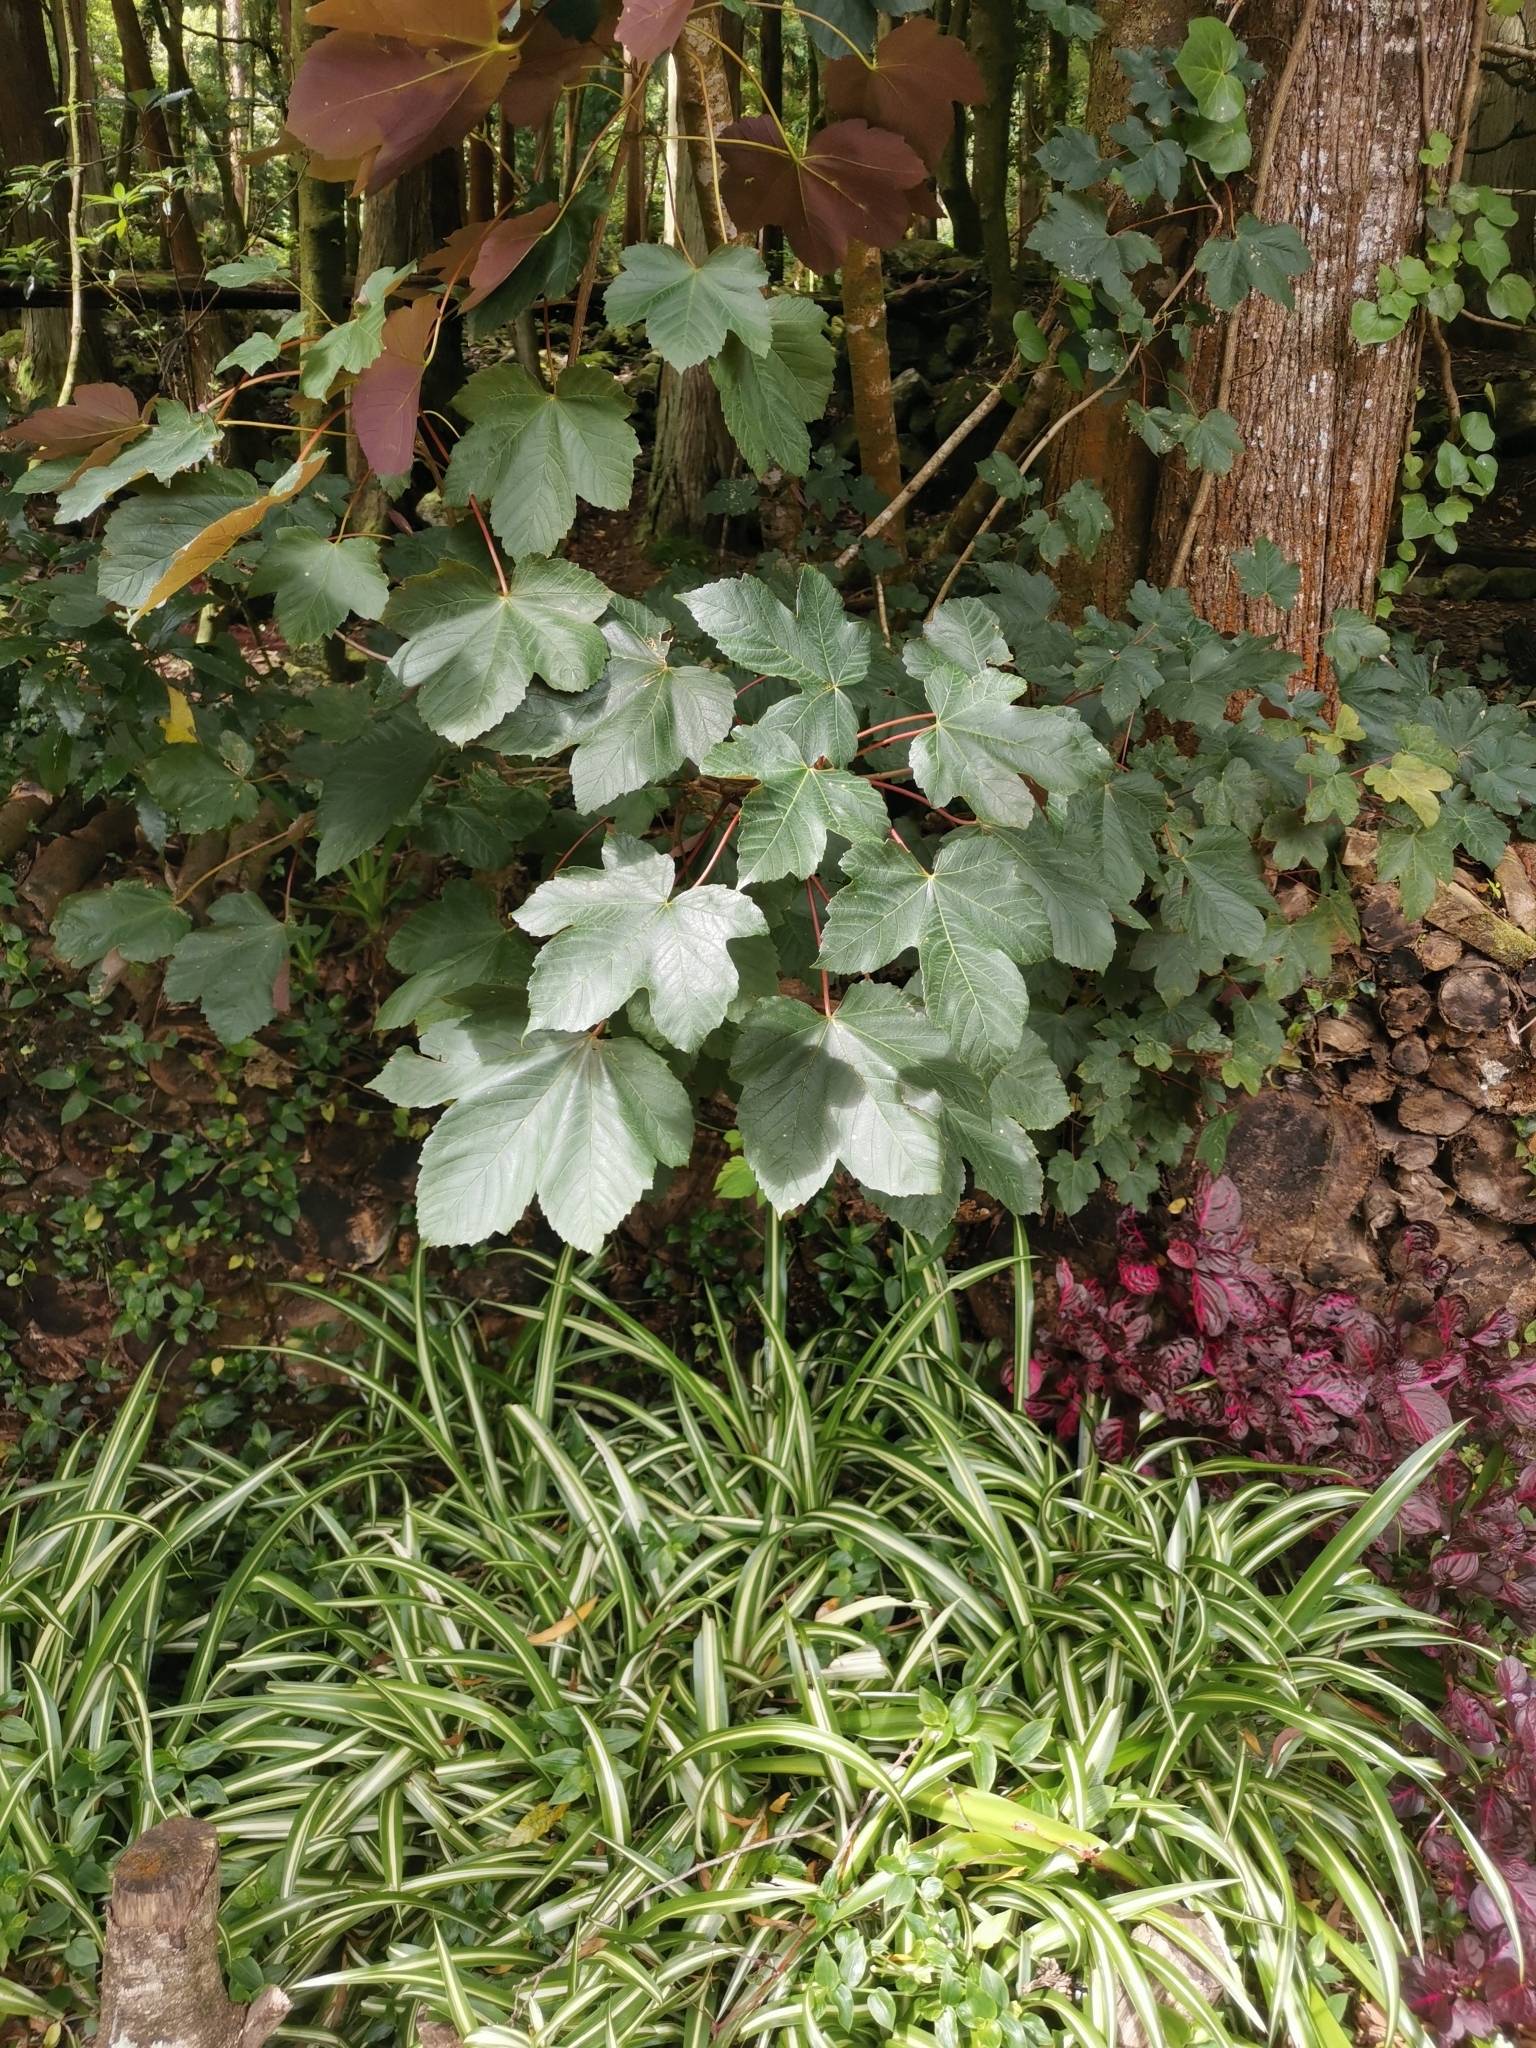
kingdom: Plantae
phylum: Tracheophyta
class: Magnoliopsida
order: Sapindales
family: Sapindaceae
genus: Acer
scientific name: Acer pseudoplatanus
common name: Sycamore
